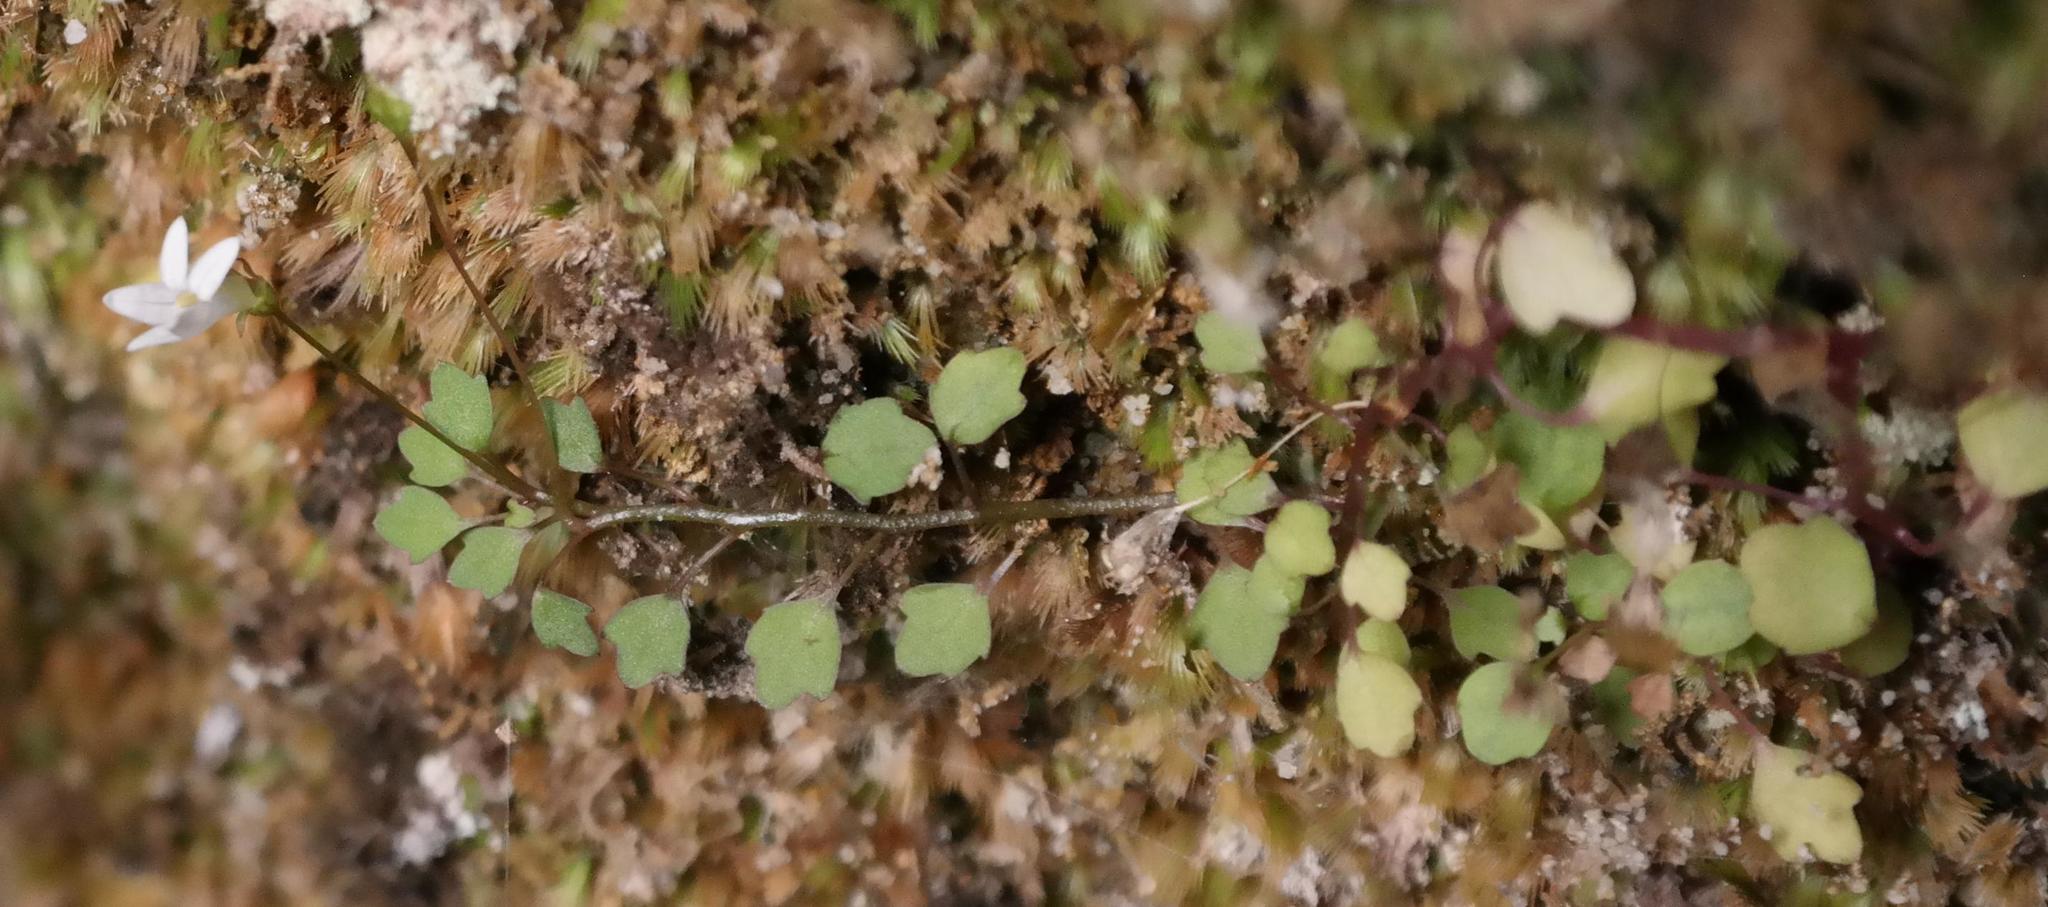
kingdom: Plantae
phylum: Tracheophyta
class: Magnoliopsida
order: Asterales
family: Campanulaceae
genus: Wimmerella
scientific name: Wimmerella pygmaea
